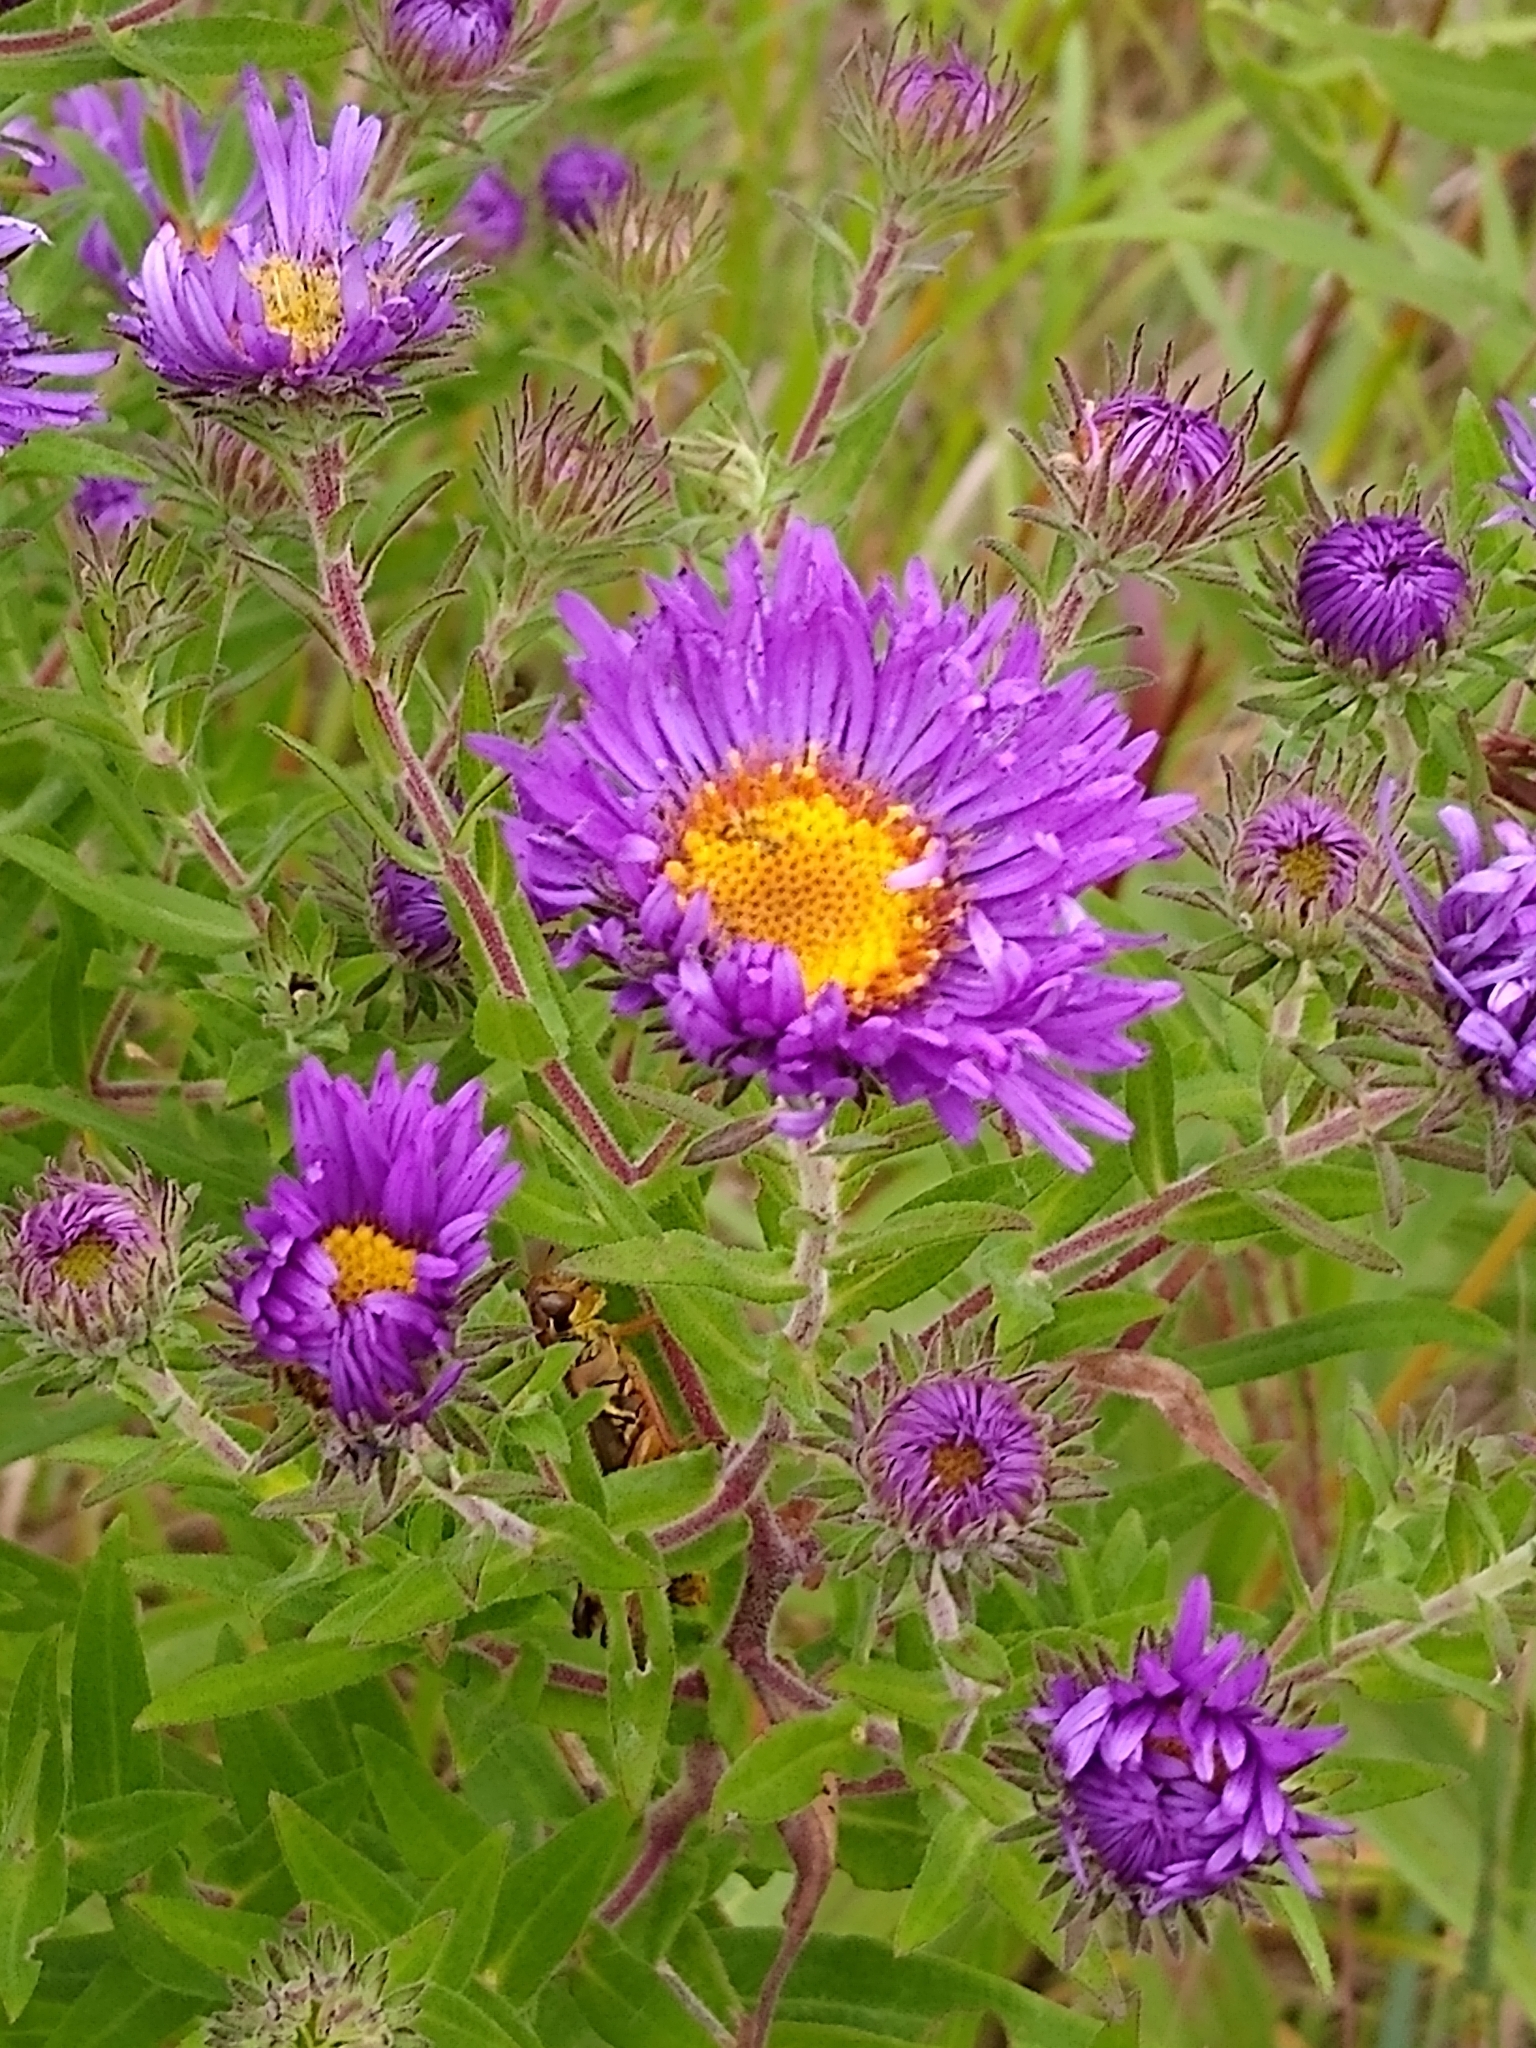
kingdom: Plantae
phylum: Tracheophyta
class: Magnoliopsida
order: Asterales
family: Asteraceae
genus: Symphyotrichum
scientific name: Symphyotrichum novae-angliae
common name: Michaelmas daisy
